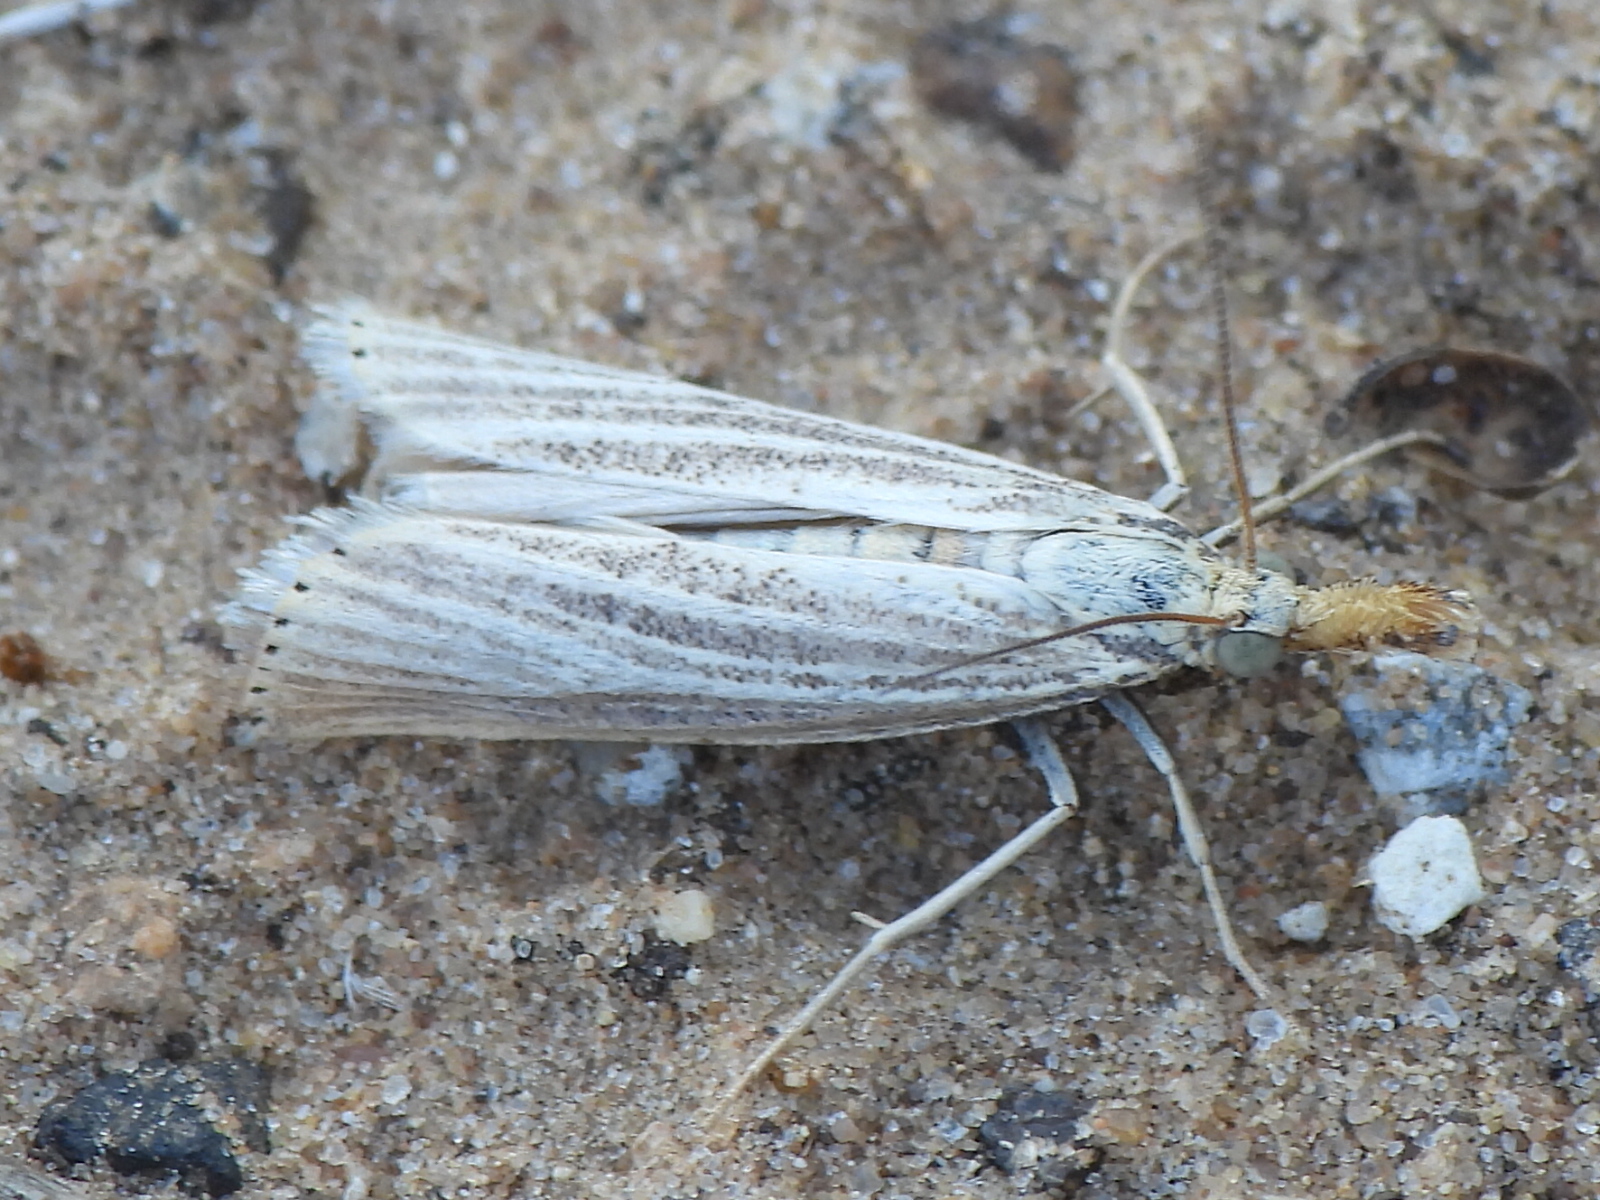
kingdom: Animalia
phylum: Arthropoda
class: Insecta
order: Lepidoptera
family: Crambidae
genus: Agriphila
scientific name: Agriphila vulgivagellus
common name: Vagabond crambus moth
